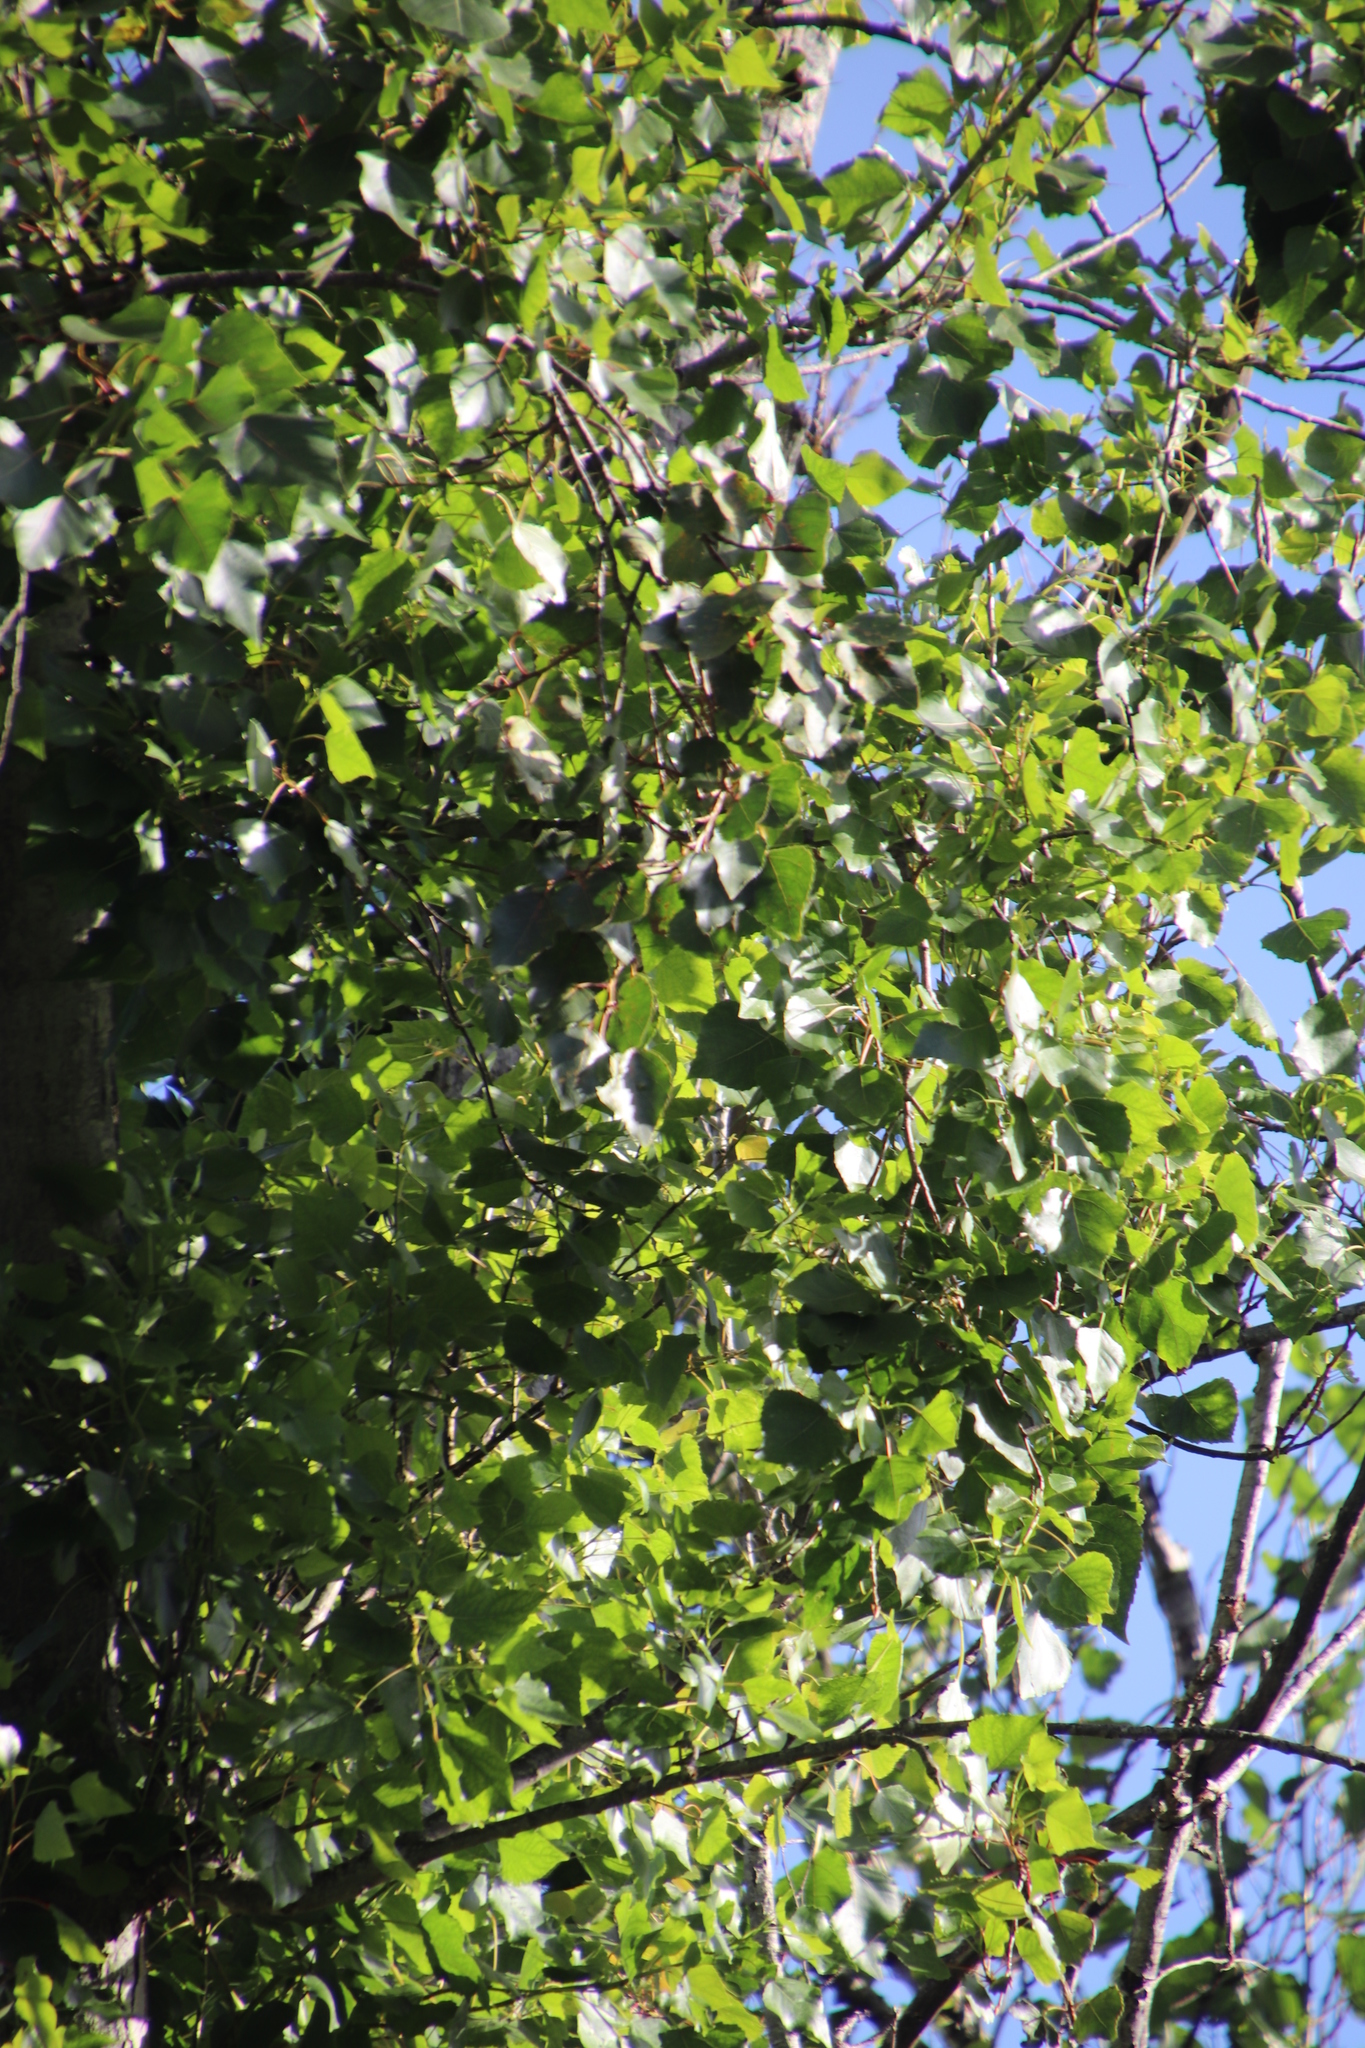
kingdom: Plantae
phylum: Tracheophyta
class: Magnoliopsida
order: Malpighiales
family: Salicaceae
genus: Populus
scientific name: Populus nigra
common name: Black poplar
